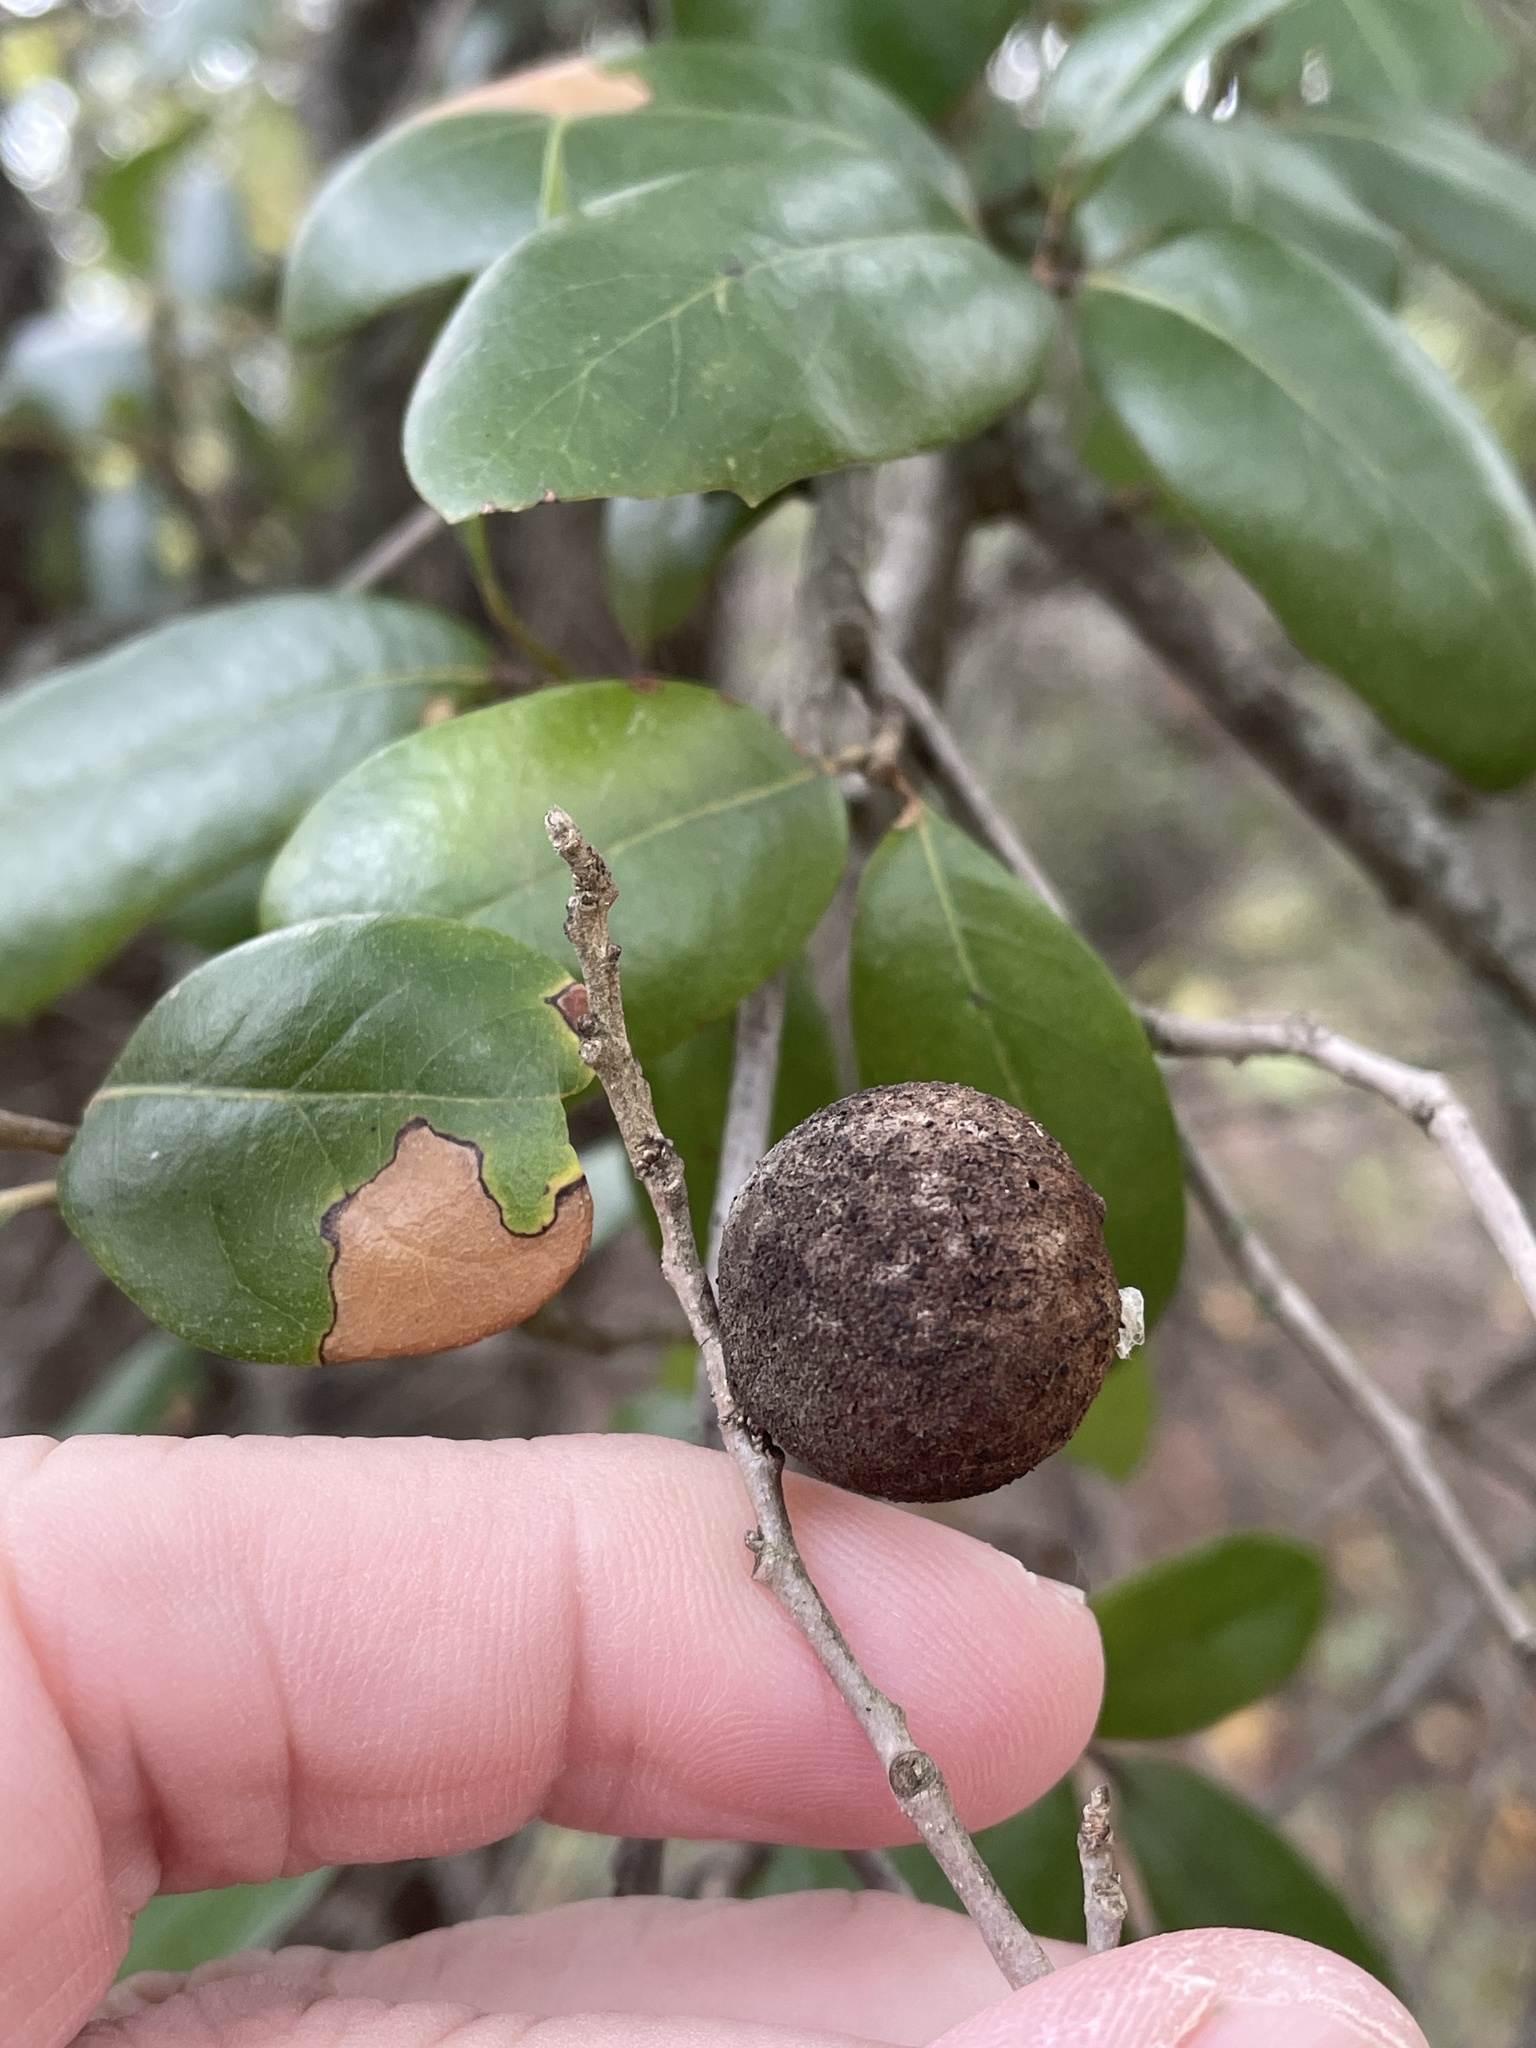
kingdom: Animalia
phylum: Arthropoda
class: Insecta
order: Hymenoptera
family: Cynipidae
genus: Disholcaspis
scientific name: Disholcaspis
